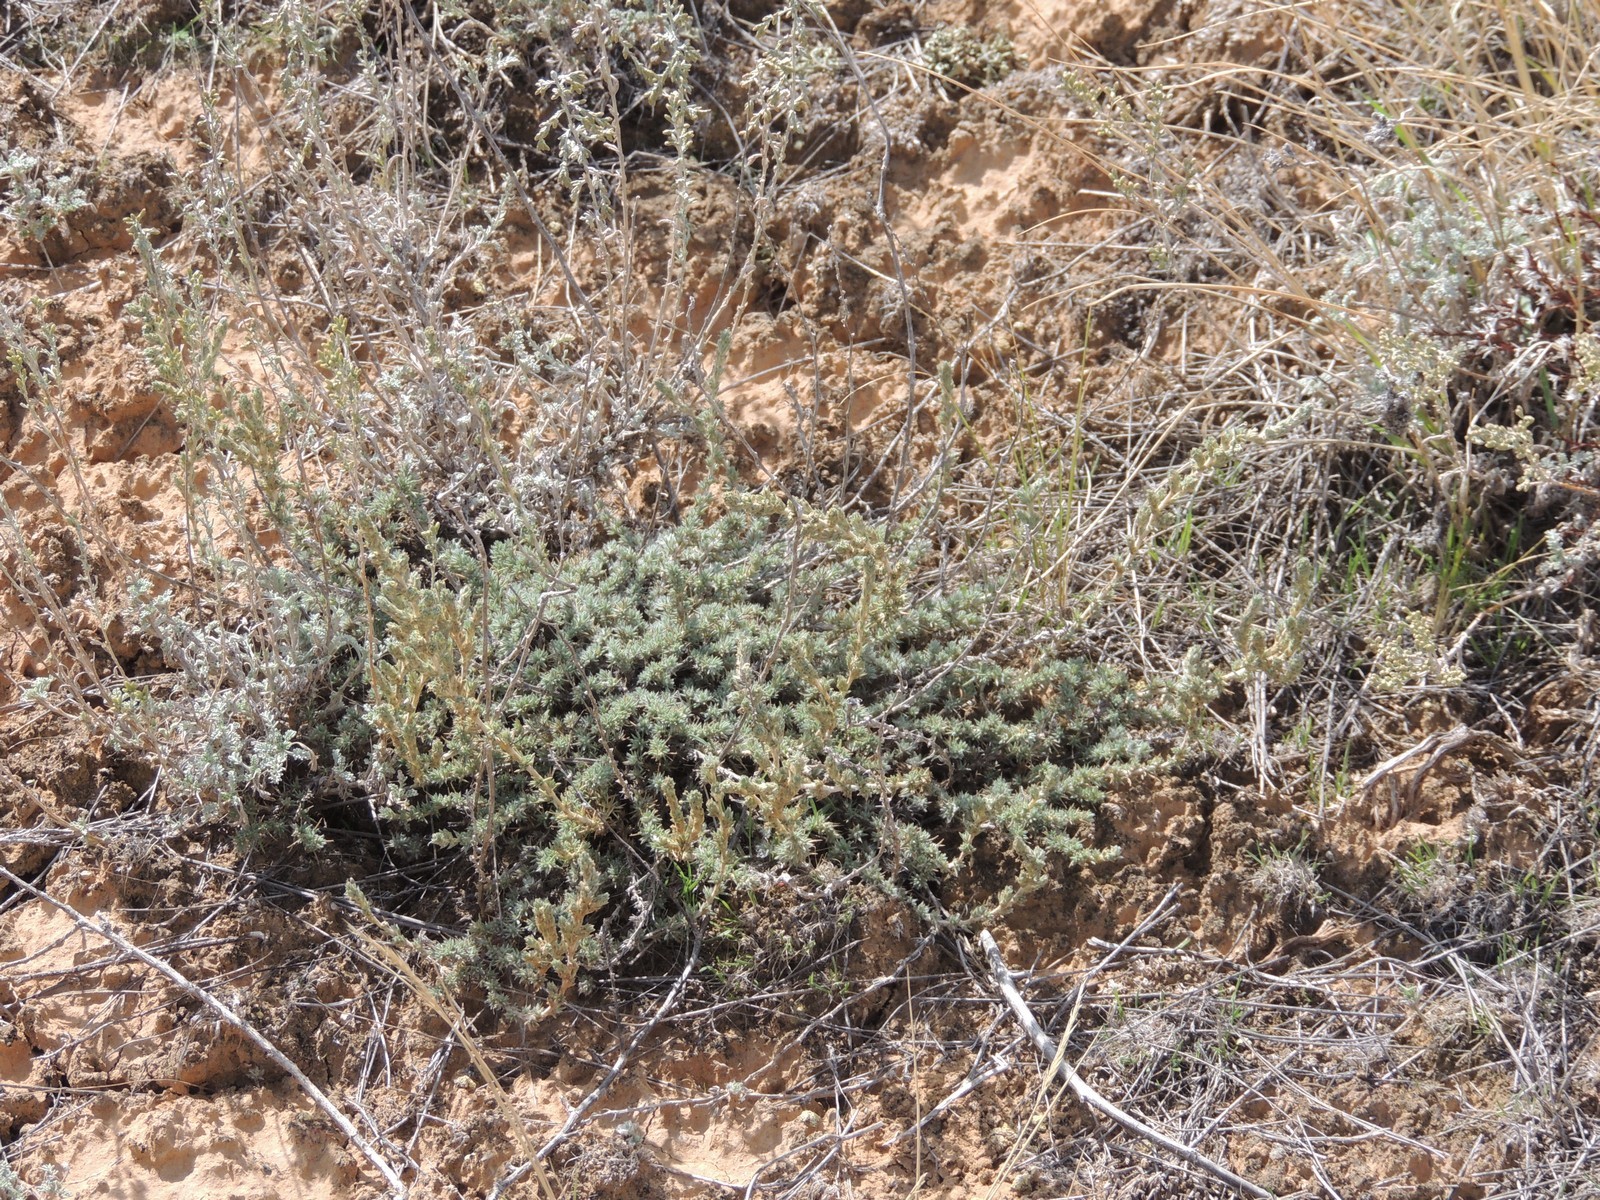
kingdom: Plantae
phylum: Tracheophyta
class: Magnoliopsida
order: Caryophyllales
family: Amaranthaceae
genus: Camphorosma
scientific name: Camphorosma monspeliaca
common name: Camphorfume
